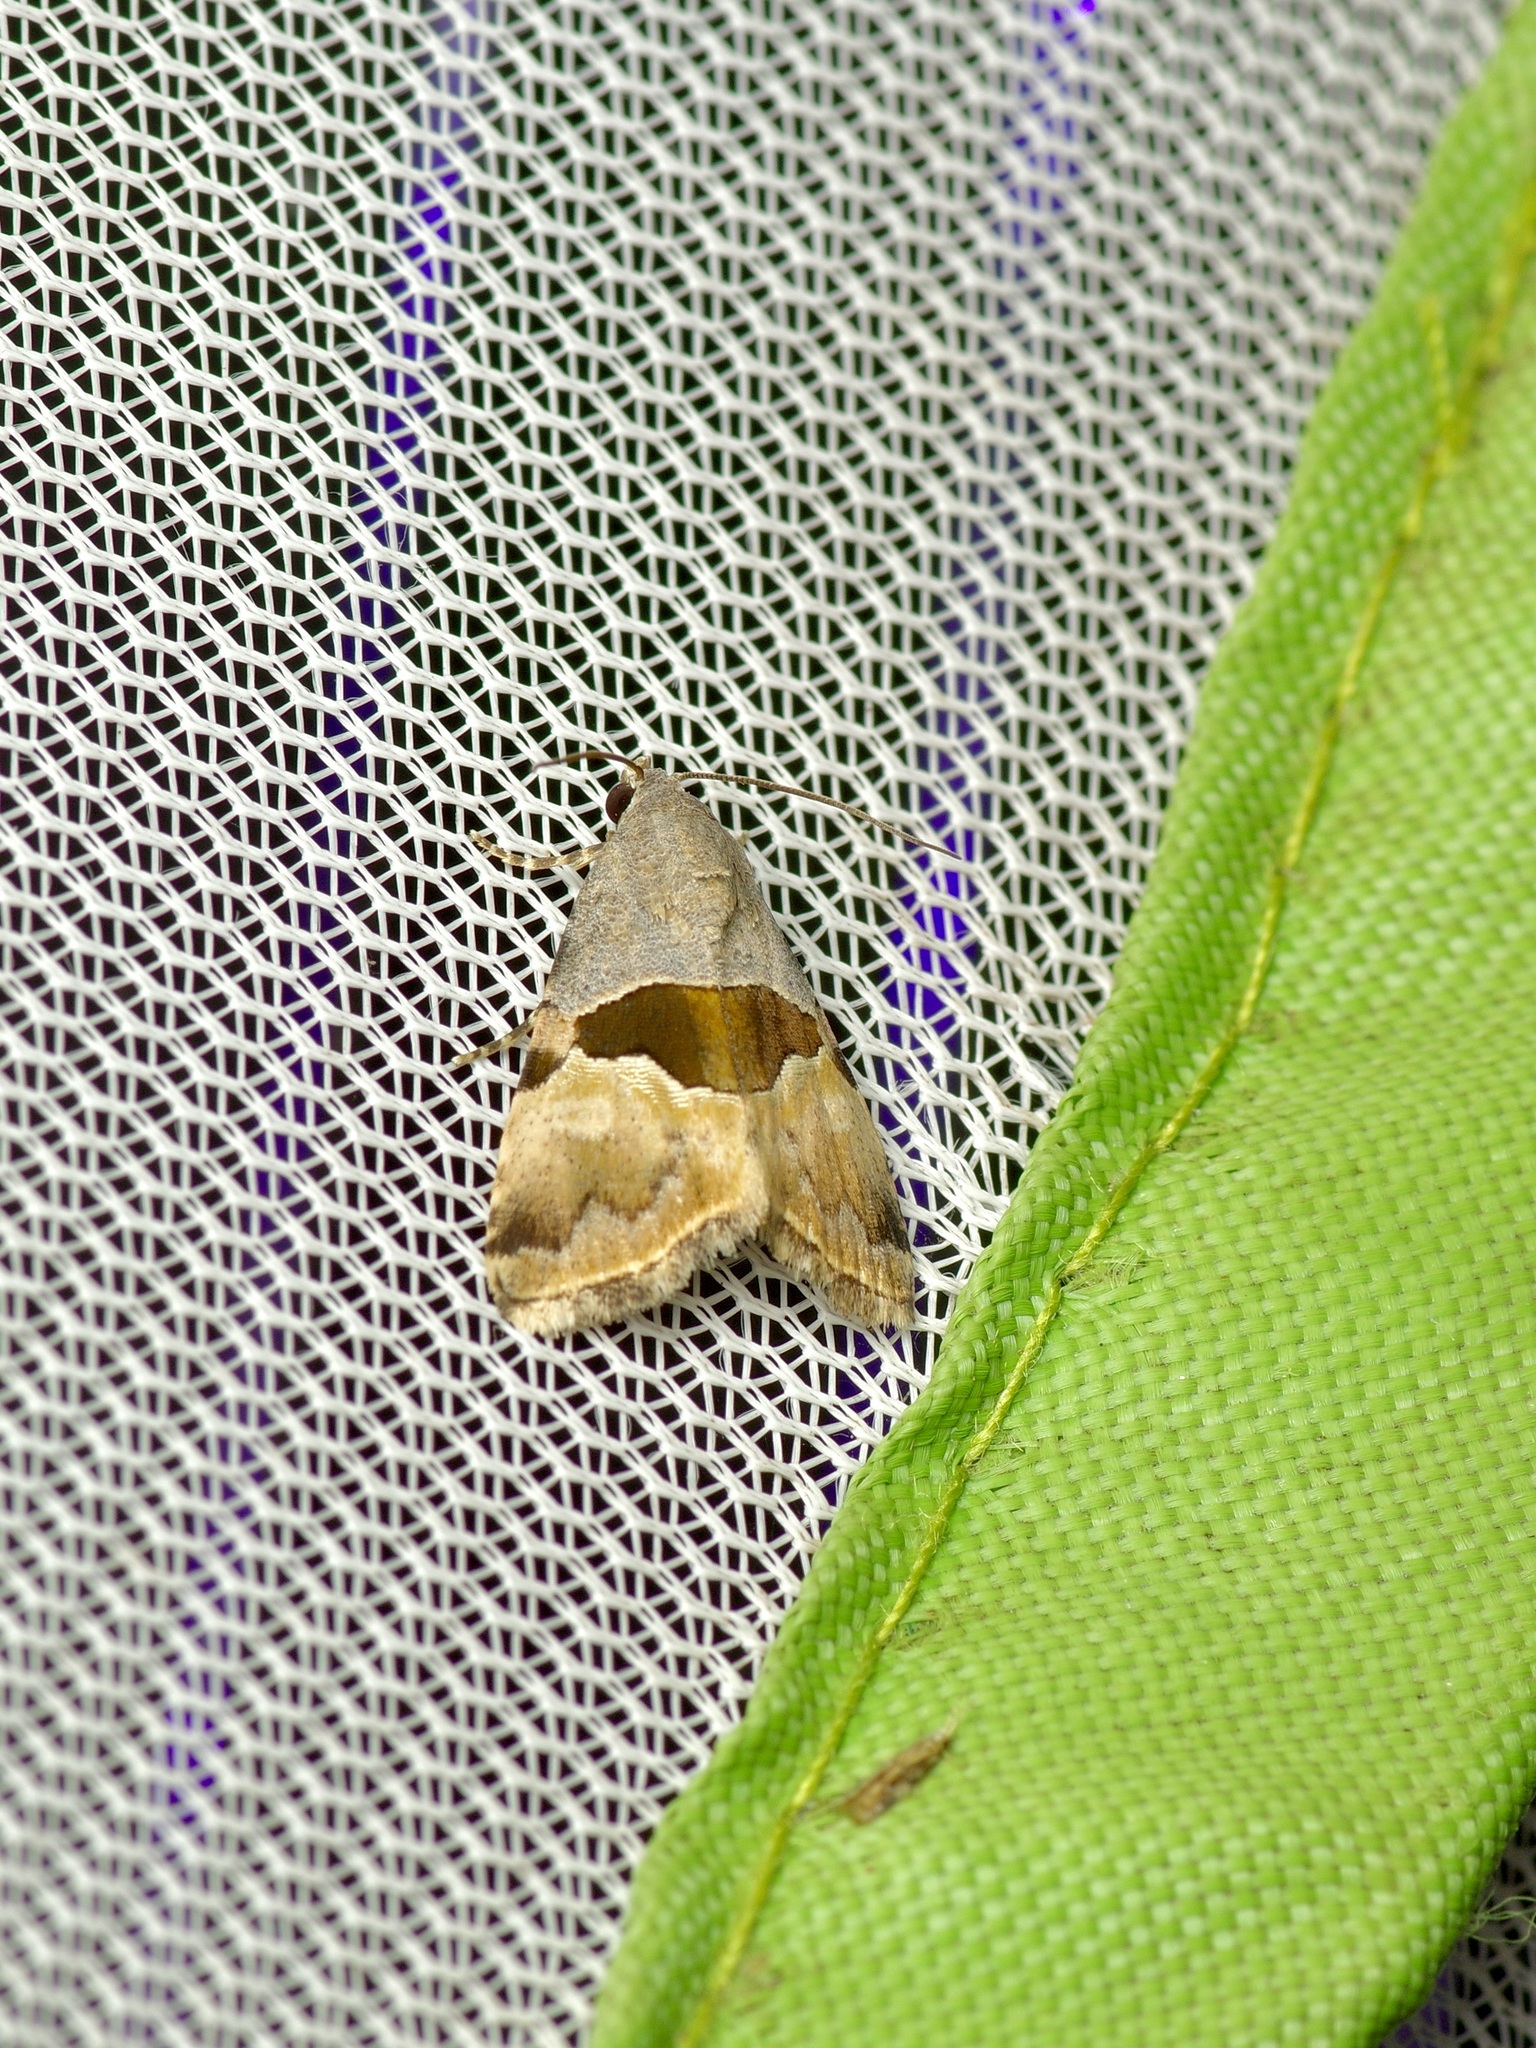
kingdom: Animalia
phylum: Arthropoda
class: Insecta
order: Lepidoptera
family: Noctuidae
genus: Cobubatha
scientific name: Cobubatha lixiva
